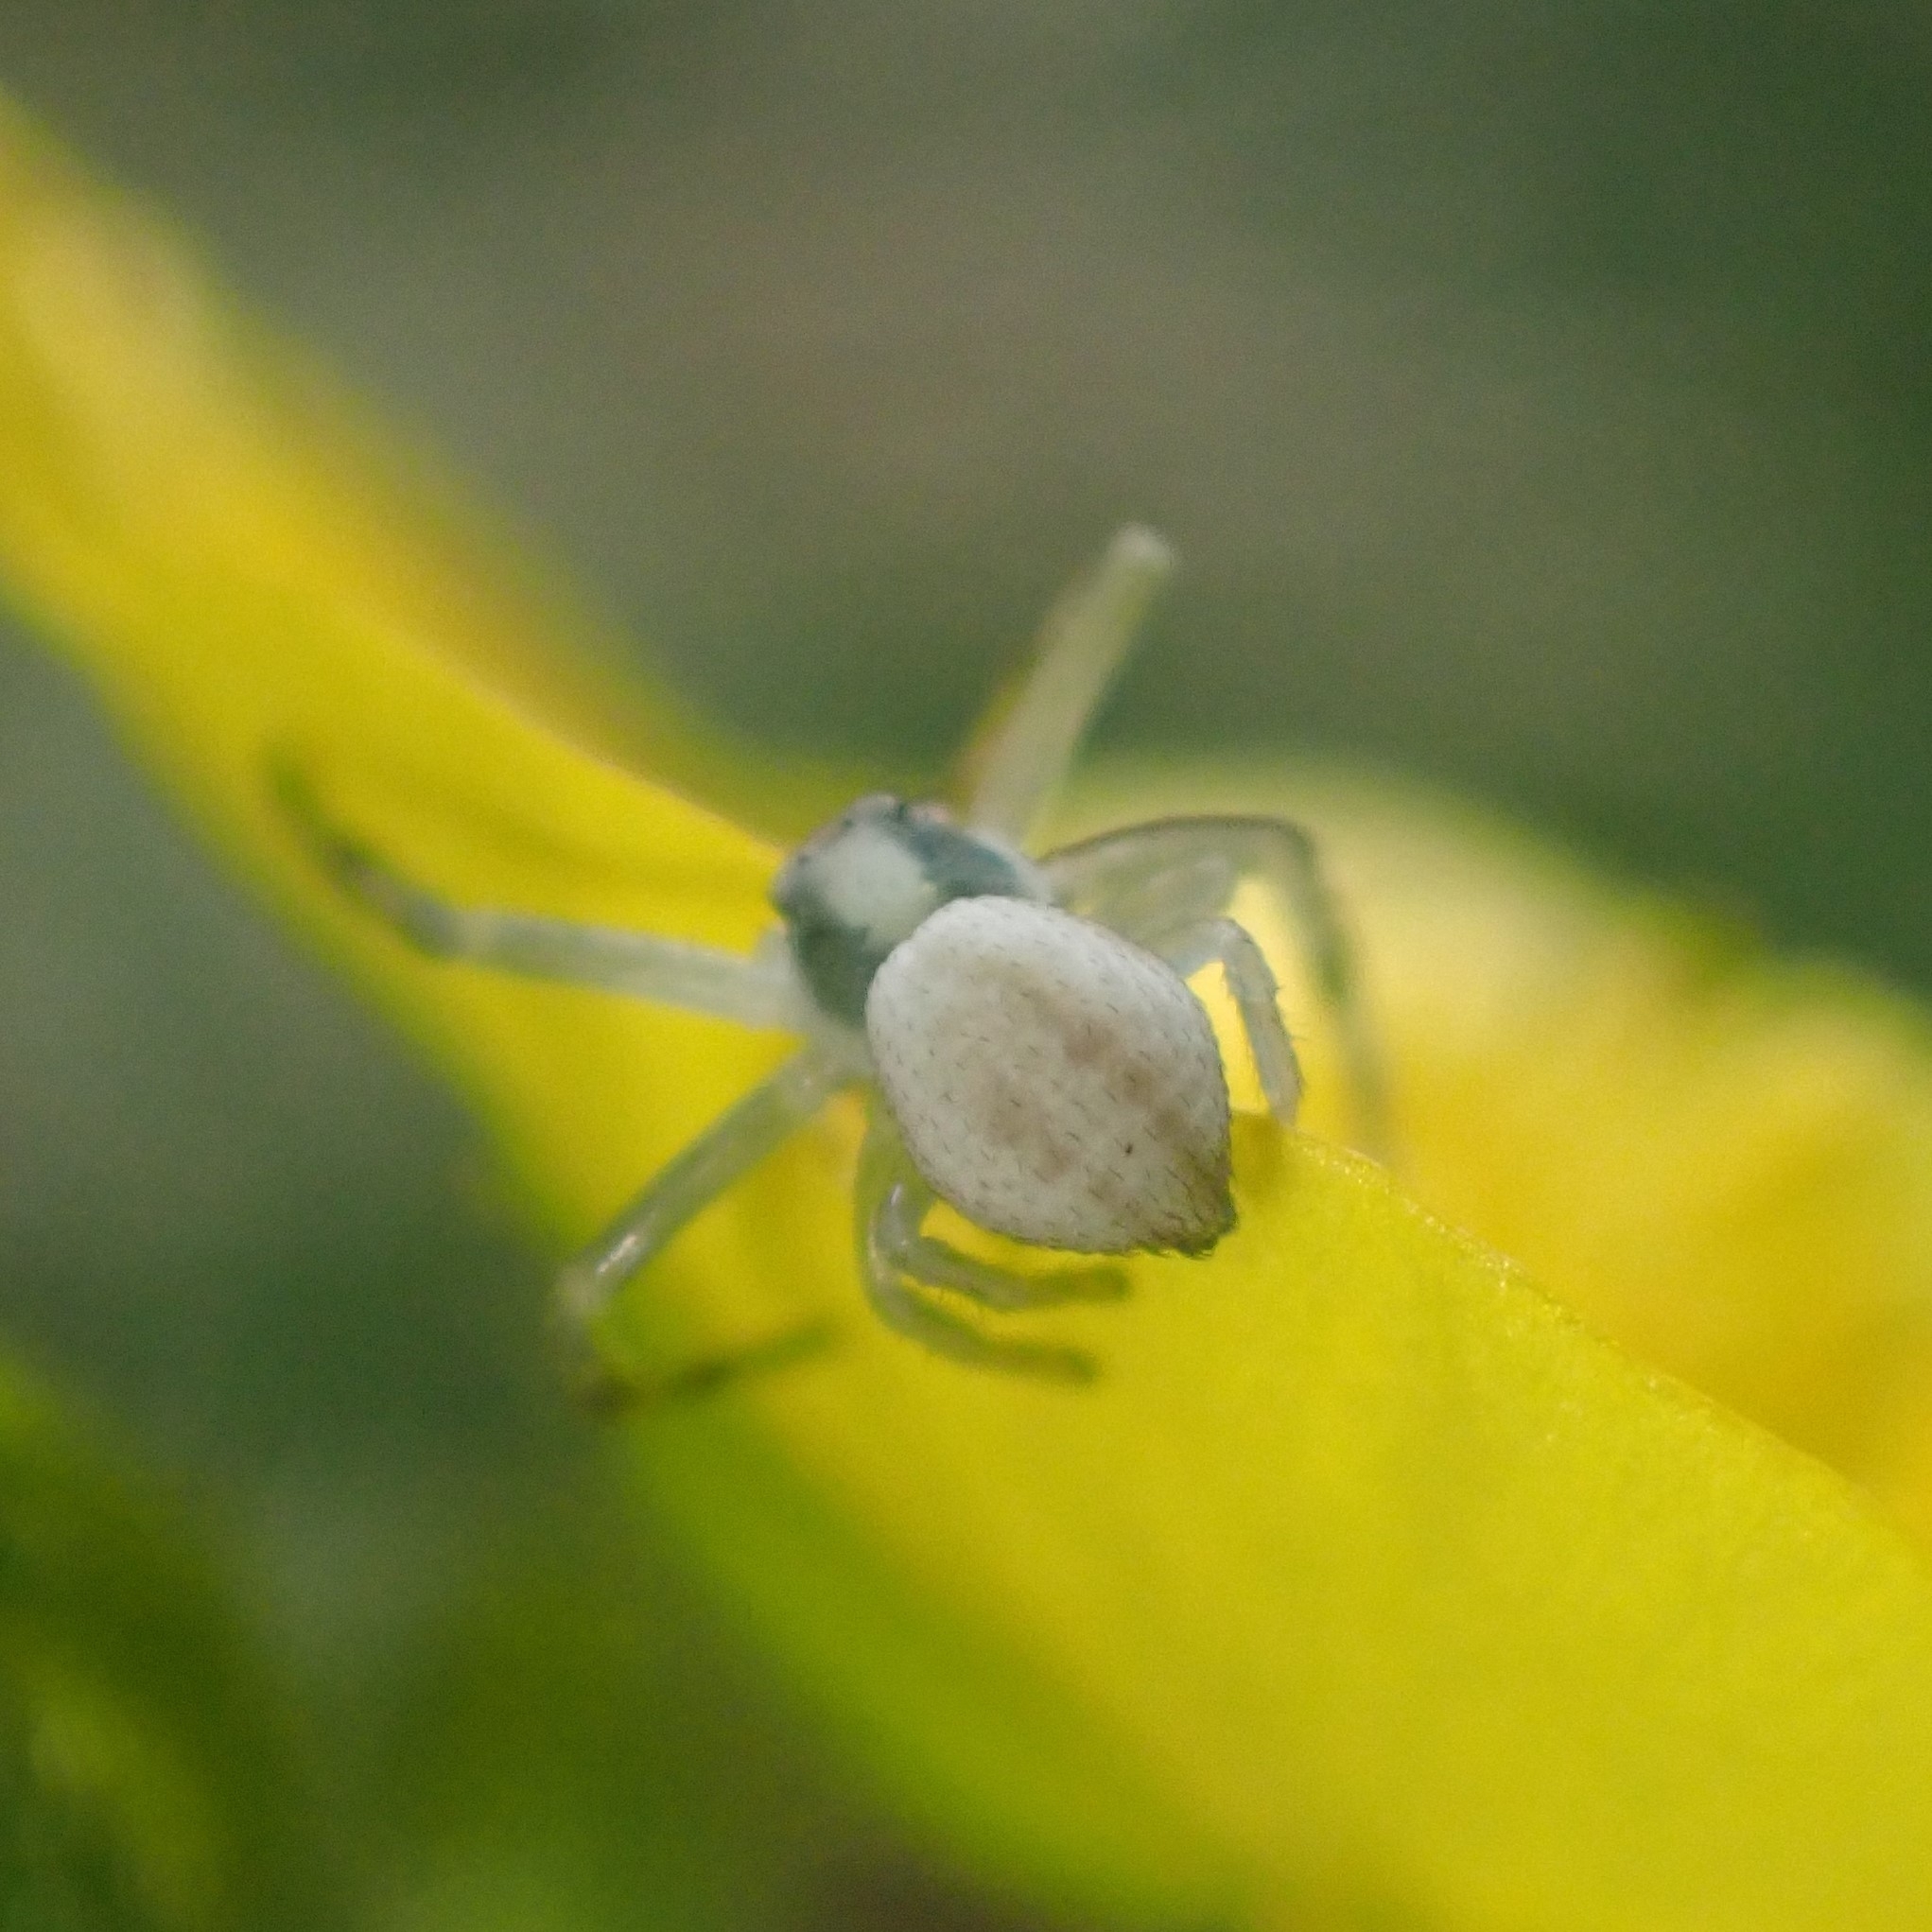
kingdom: Animalia
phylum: Arthropoda
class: Arachnida
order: Araneae
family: Thomisidae
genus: Misumena
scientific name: Misumena vatia
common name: Goldenrod crab spider
